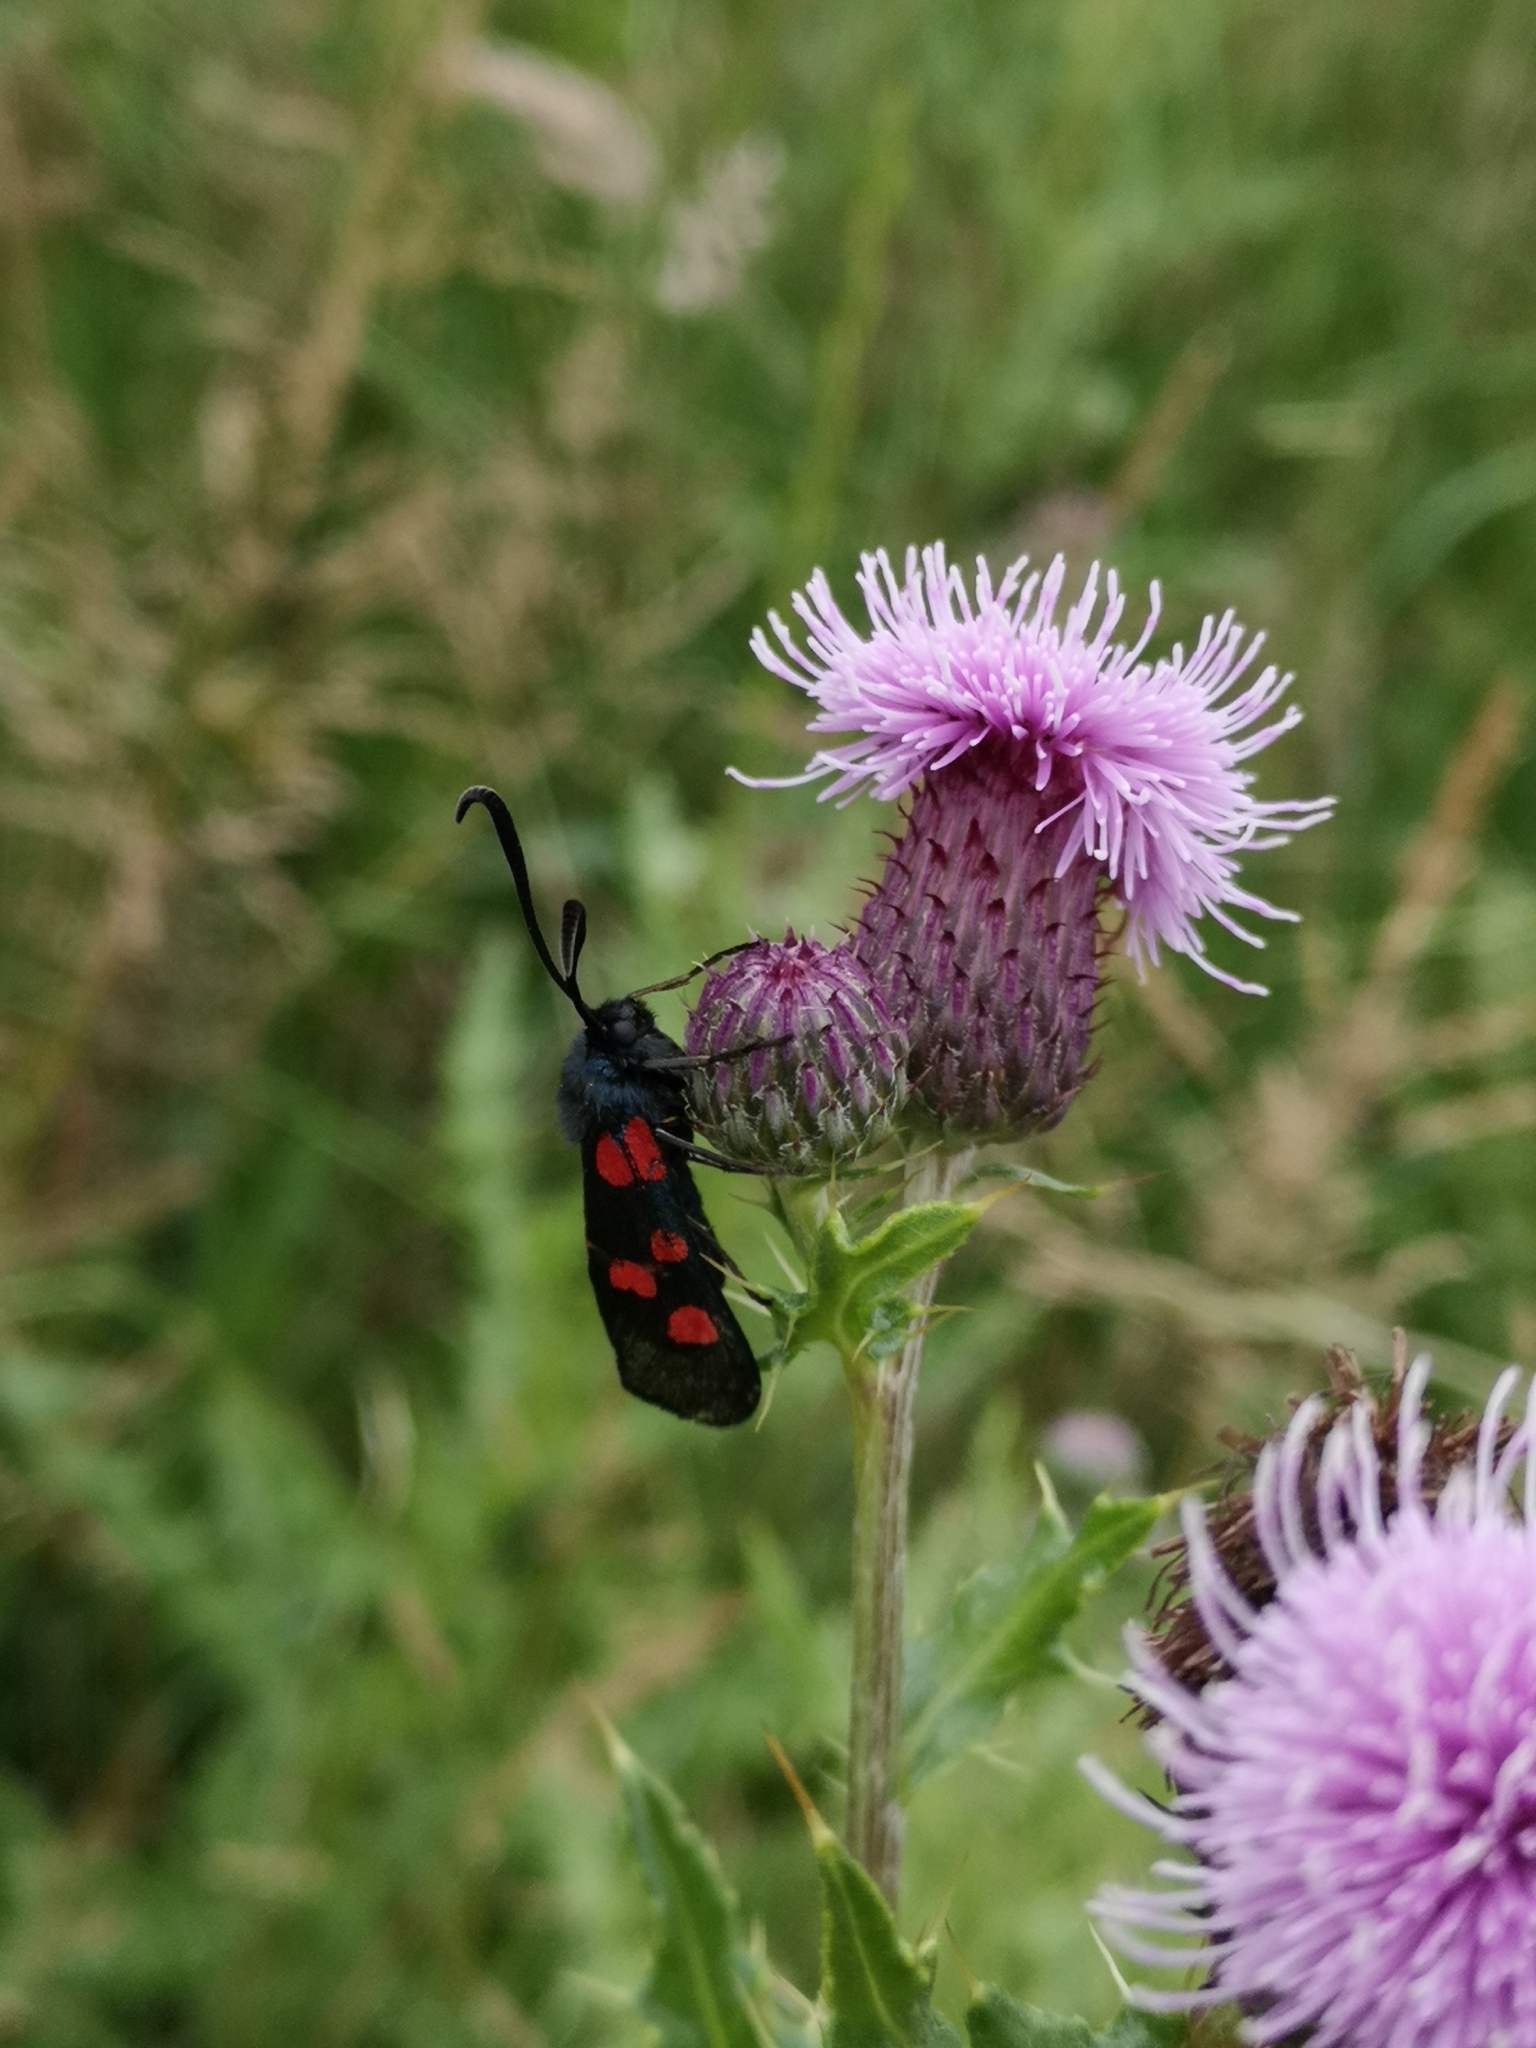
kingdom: Animalia
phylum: Arthropoda
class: Insecta
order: Lepidoptera
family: Zygaenidae
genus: Zygaena
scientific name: Zygaena lonicerae
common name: Narrow-bordered five-spot burnet
